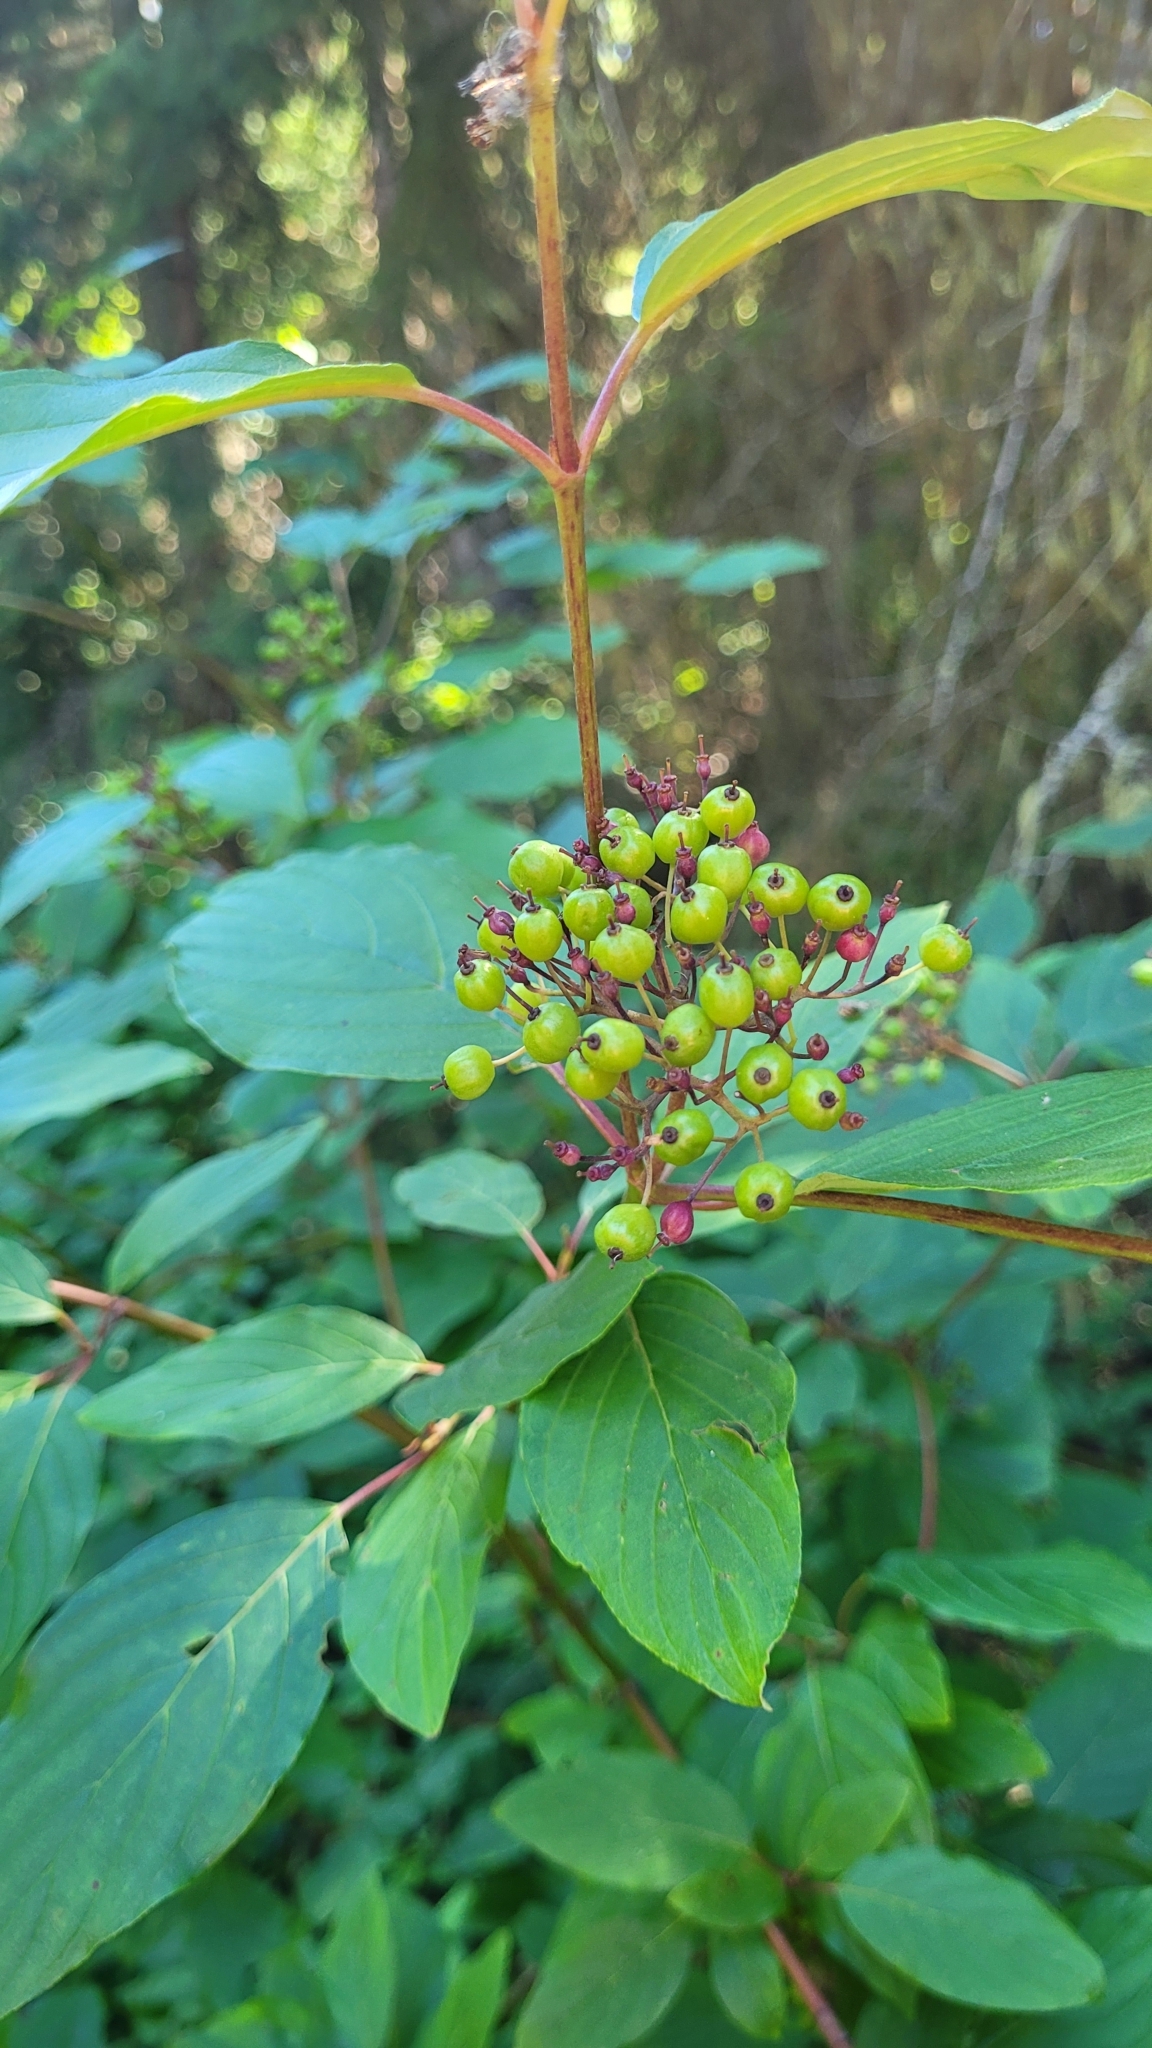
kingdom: Plantae
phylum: Tracheophyta
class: Magnoliopsida
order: Cornales
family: Cornaceae
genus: Cornus
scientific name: Cornus sericea
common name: Red-osier dogwood
